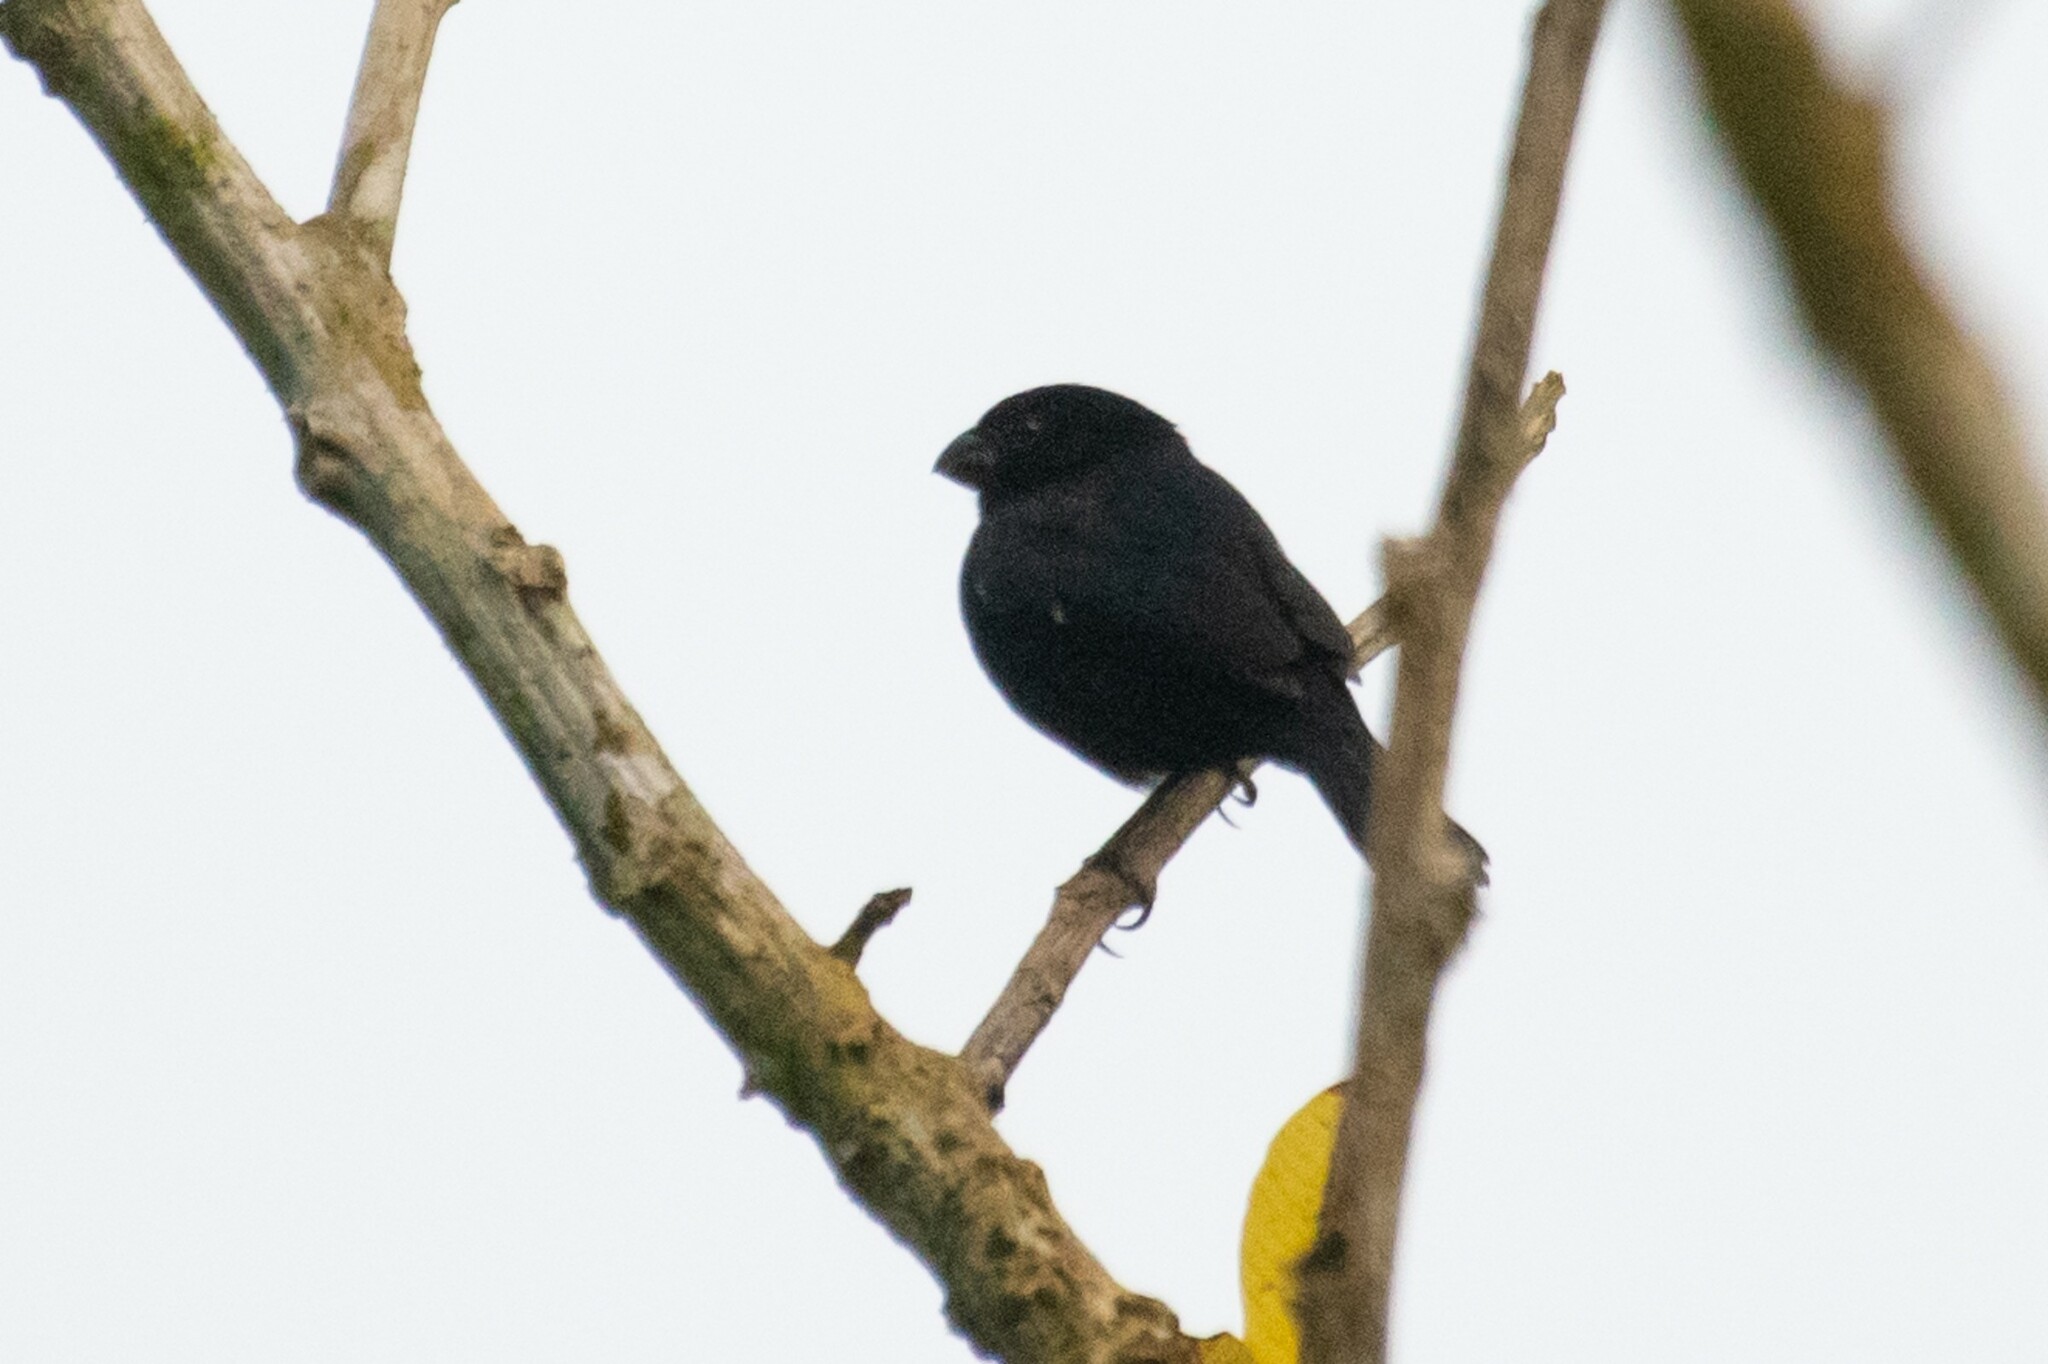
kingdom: Animalia
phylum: Chordata
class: Aves
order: Passeriformes
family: Thraupidae
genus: Sporophila
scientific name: Sporophila corvina
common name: Variable seedeater
